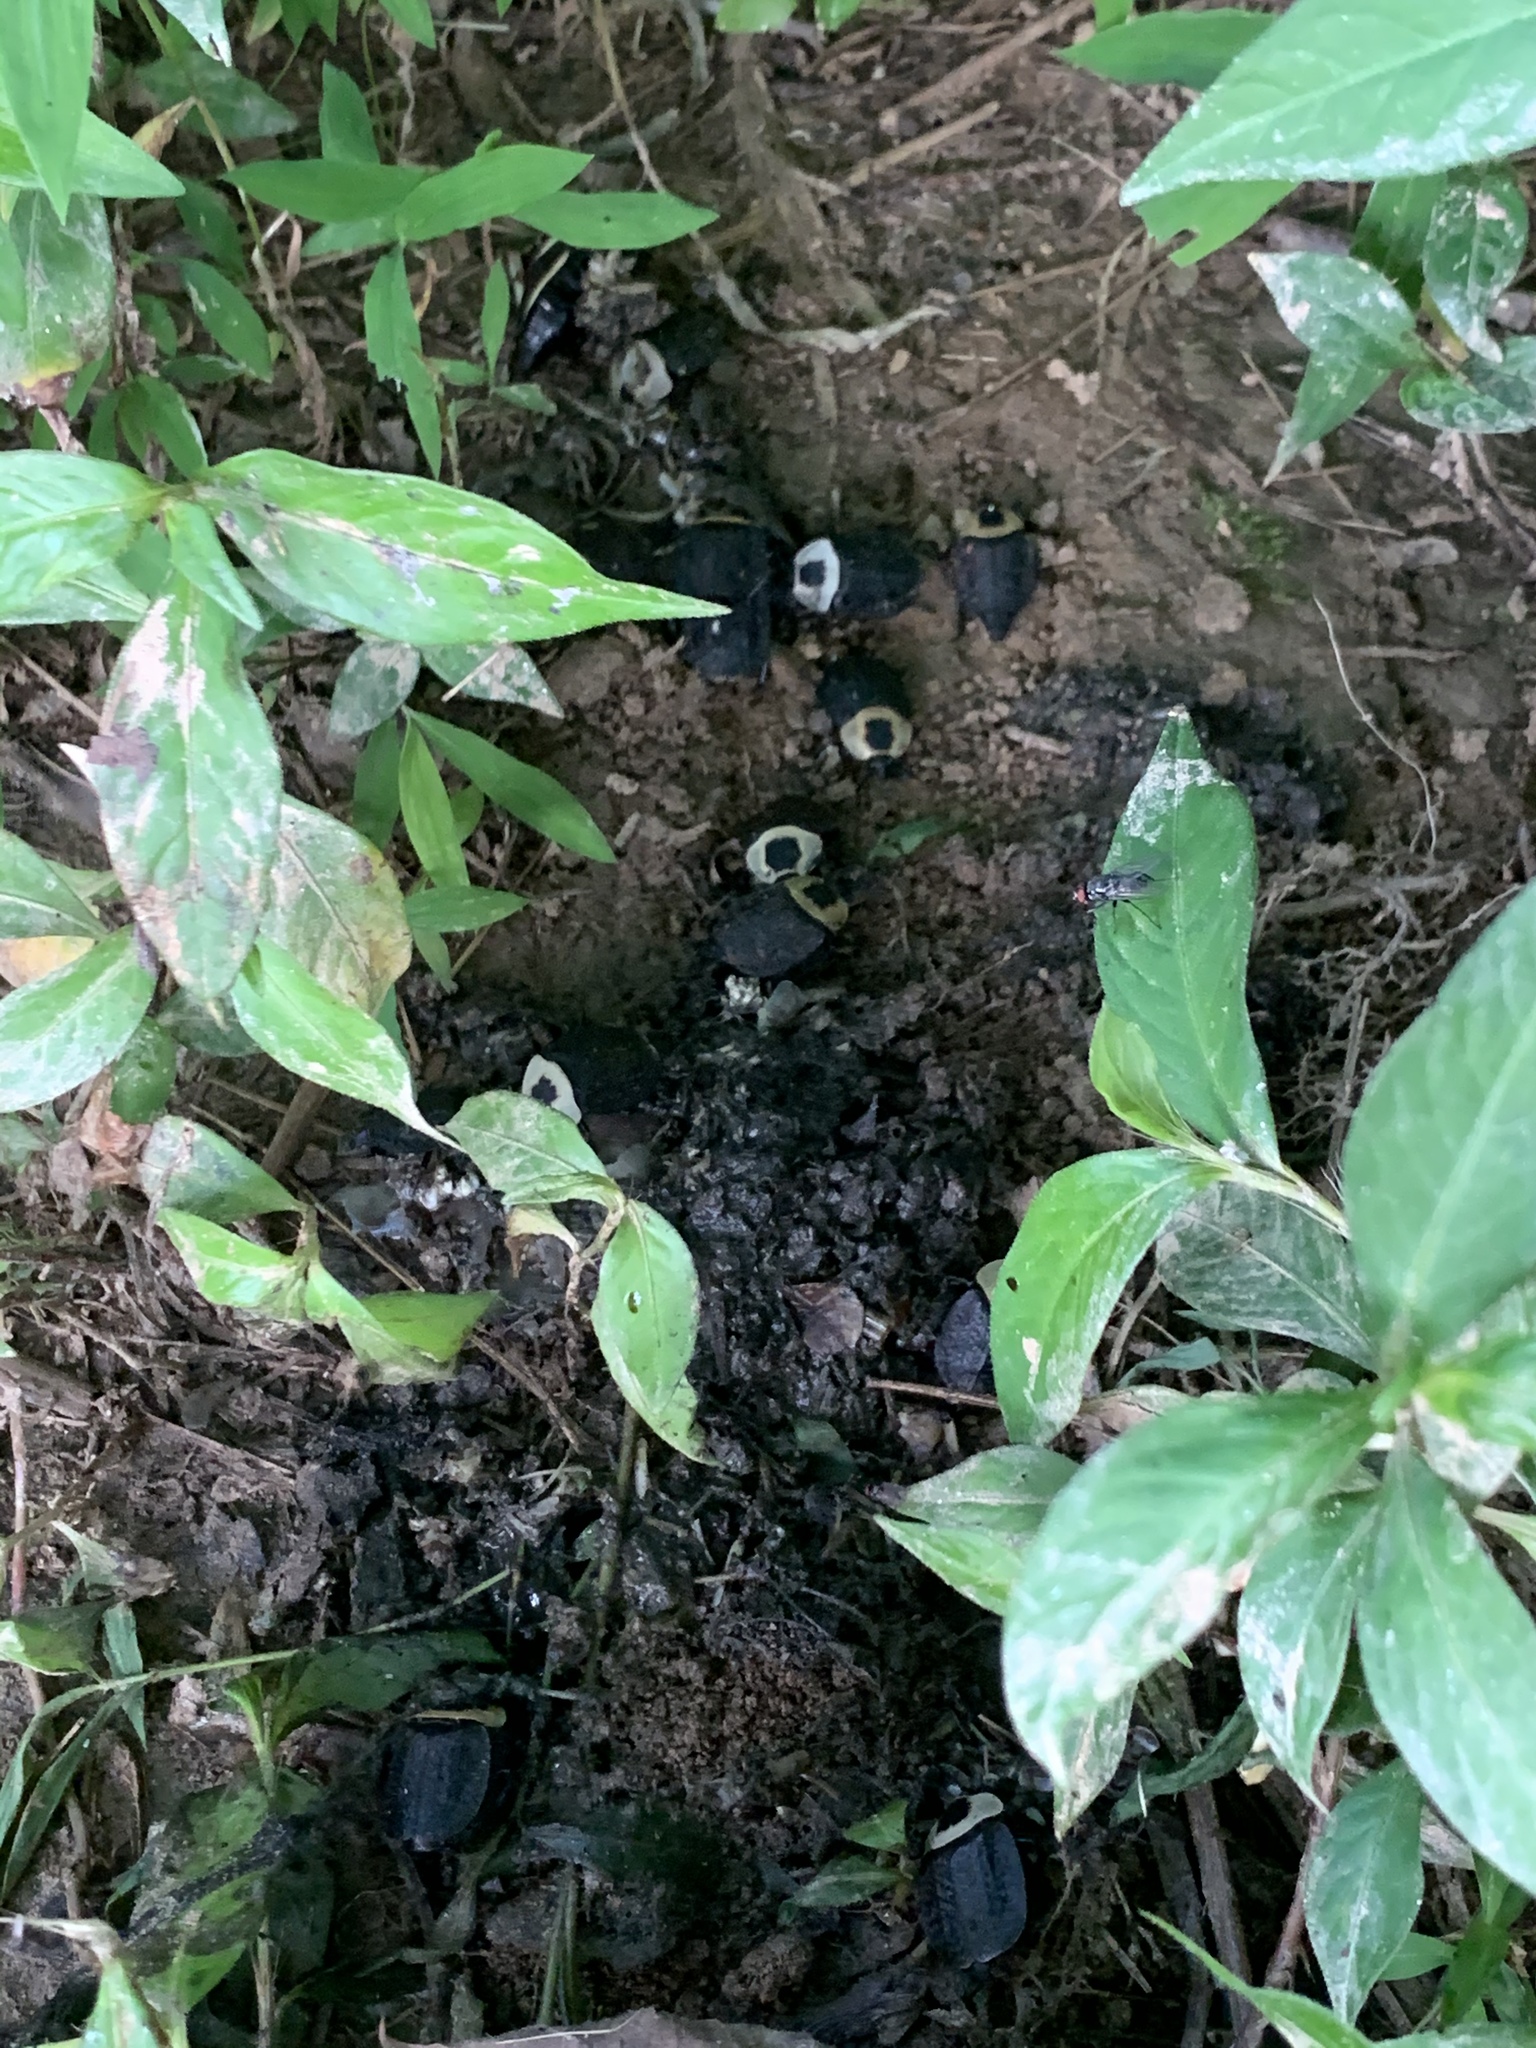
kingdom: Animalia
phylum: Arthropoda
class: Insecta
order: Coleoptera
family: Staphylinidae
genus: Necrophila
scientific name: Necrophila americana
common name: American carrion beetle
